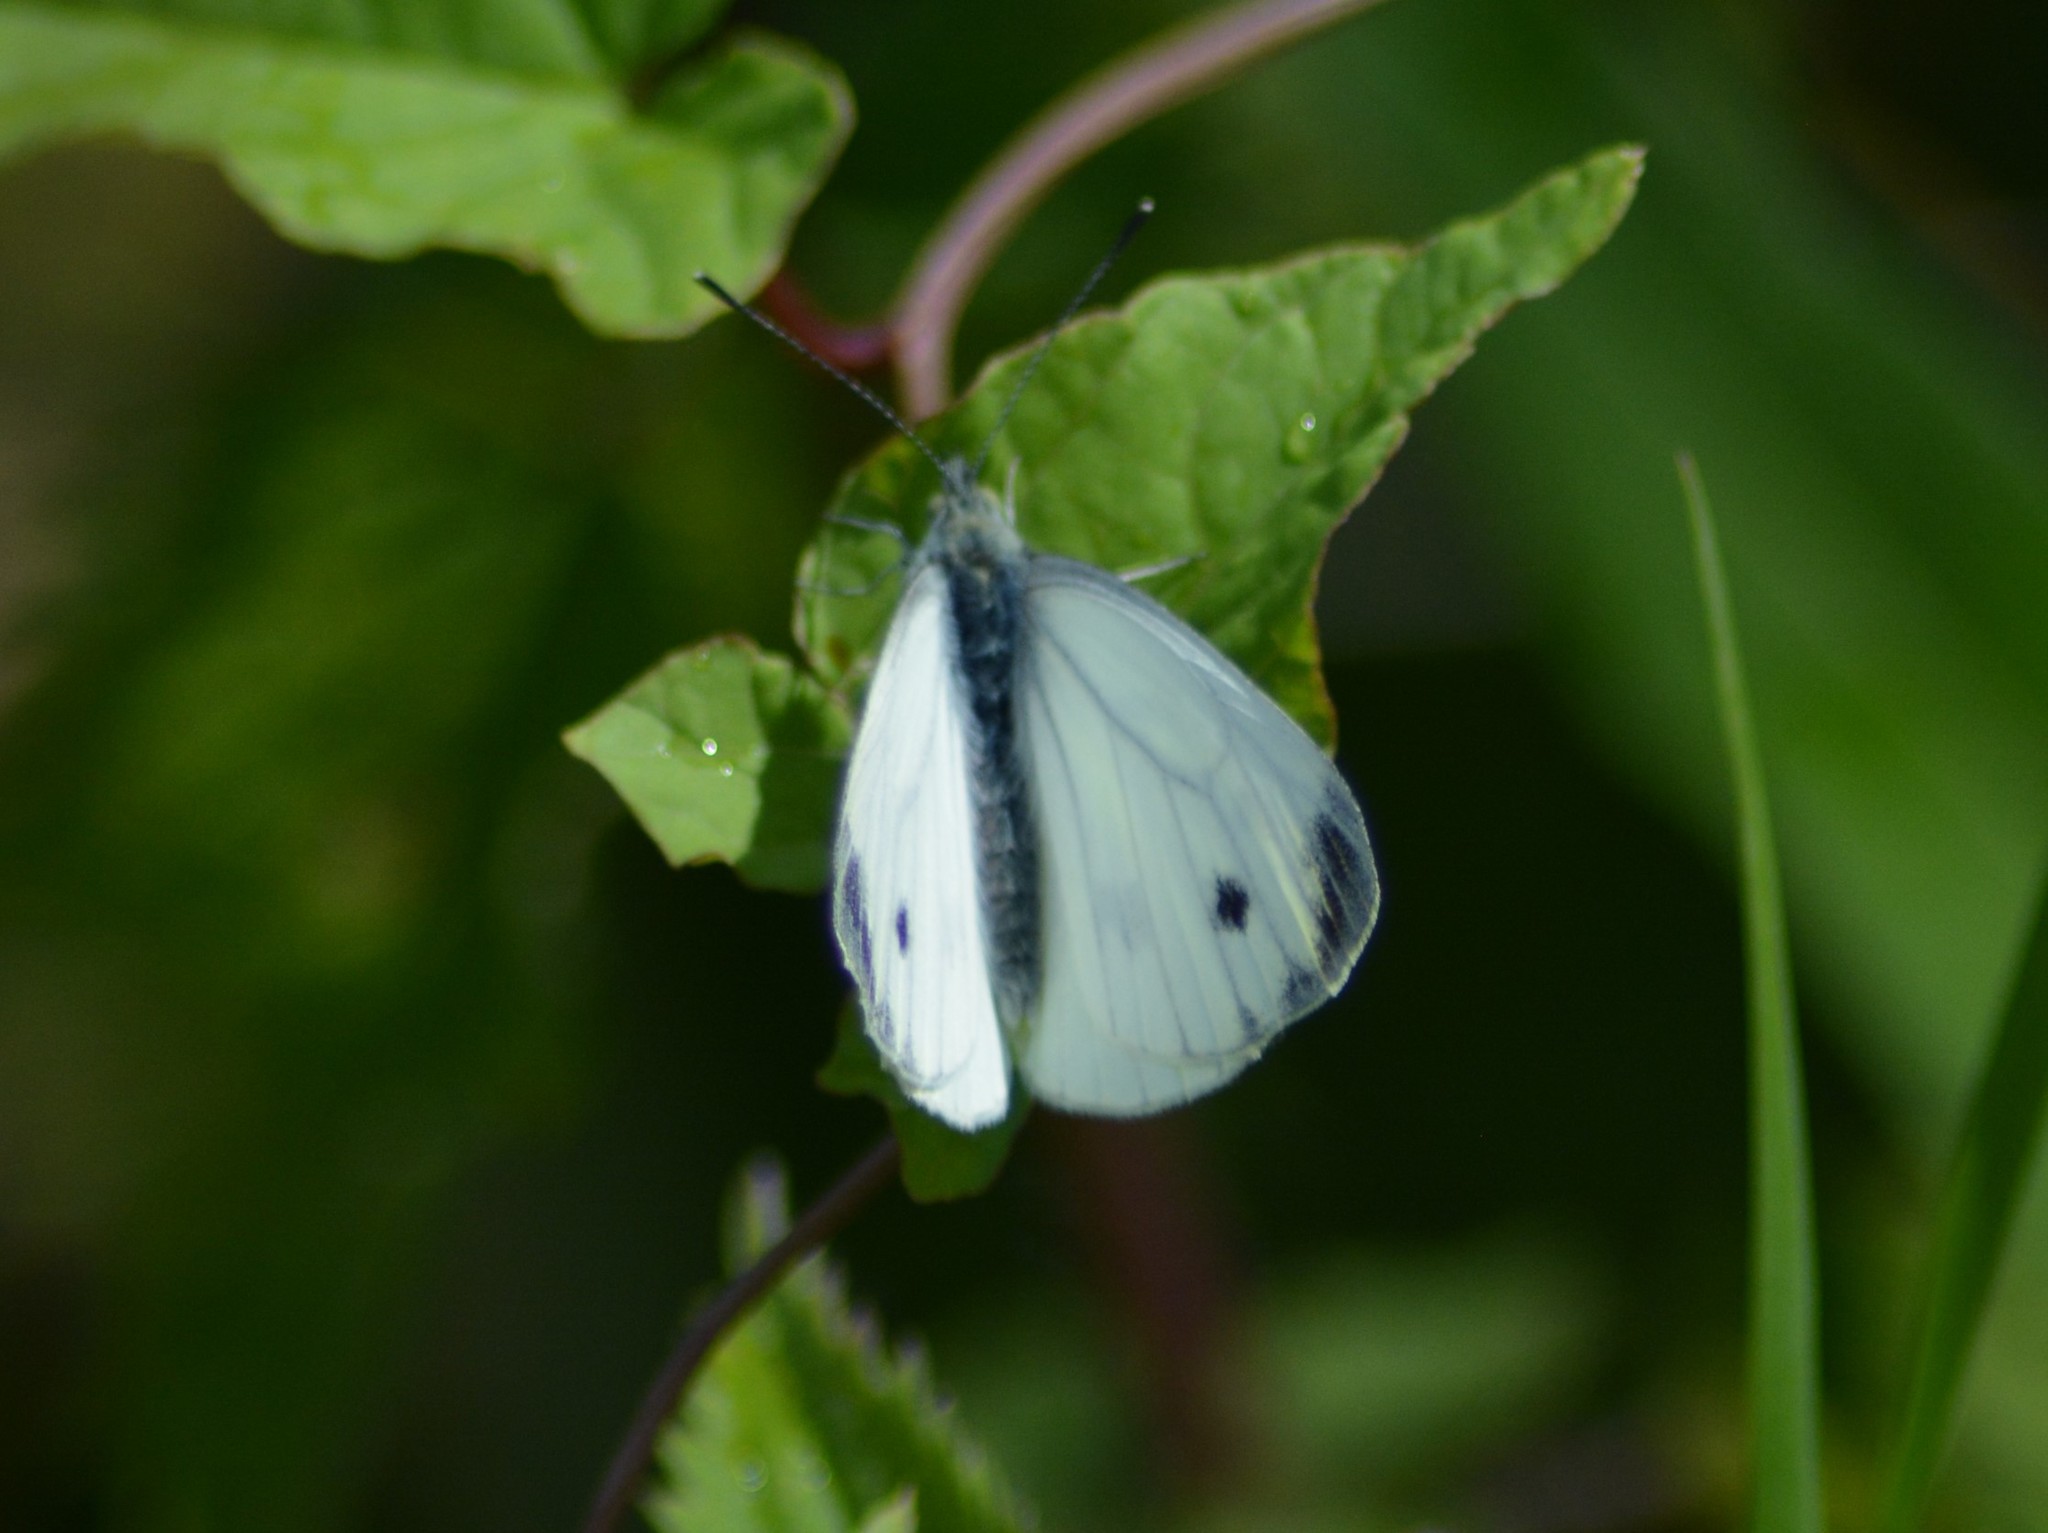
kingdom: Animalia
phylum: Arthropoda
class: Insecta
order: Lepidoptera
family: Pieridae
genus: Pieris
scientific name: Pieris napi
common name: Green-veined white
